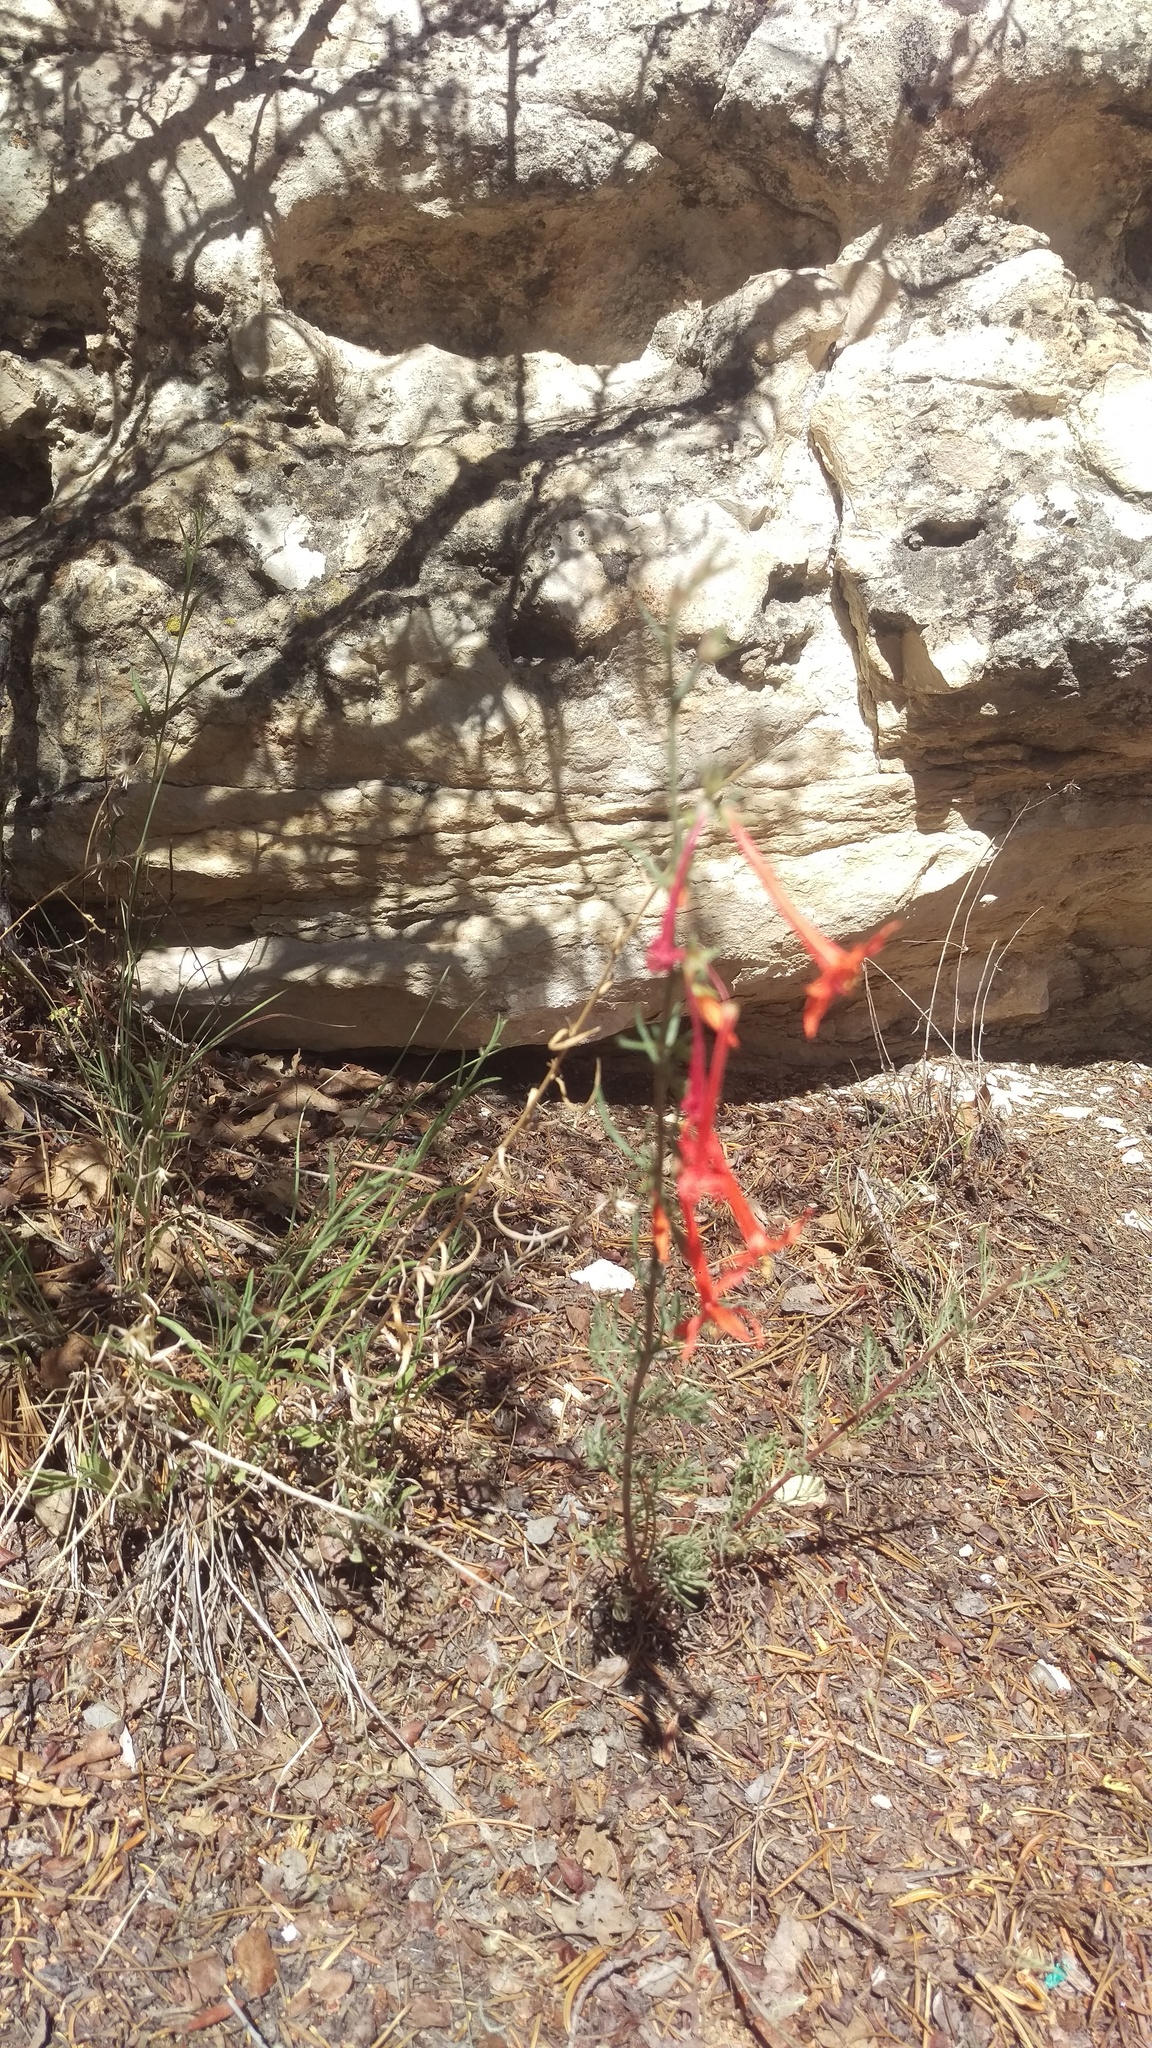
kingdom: Plantae
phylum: Tracheophyta
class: Magnoliopsida
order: Ericales
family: Polemoniaceae
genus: Ipomopsis
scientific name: Ipomopsis aggregata
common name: Scarlet gilia
